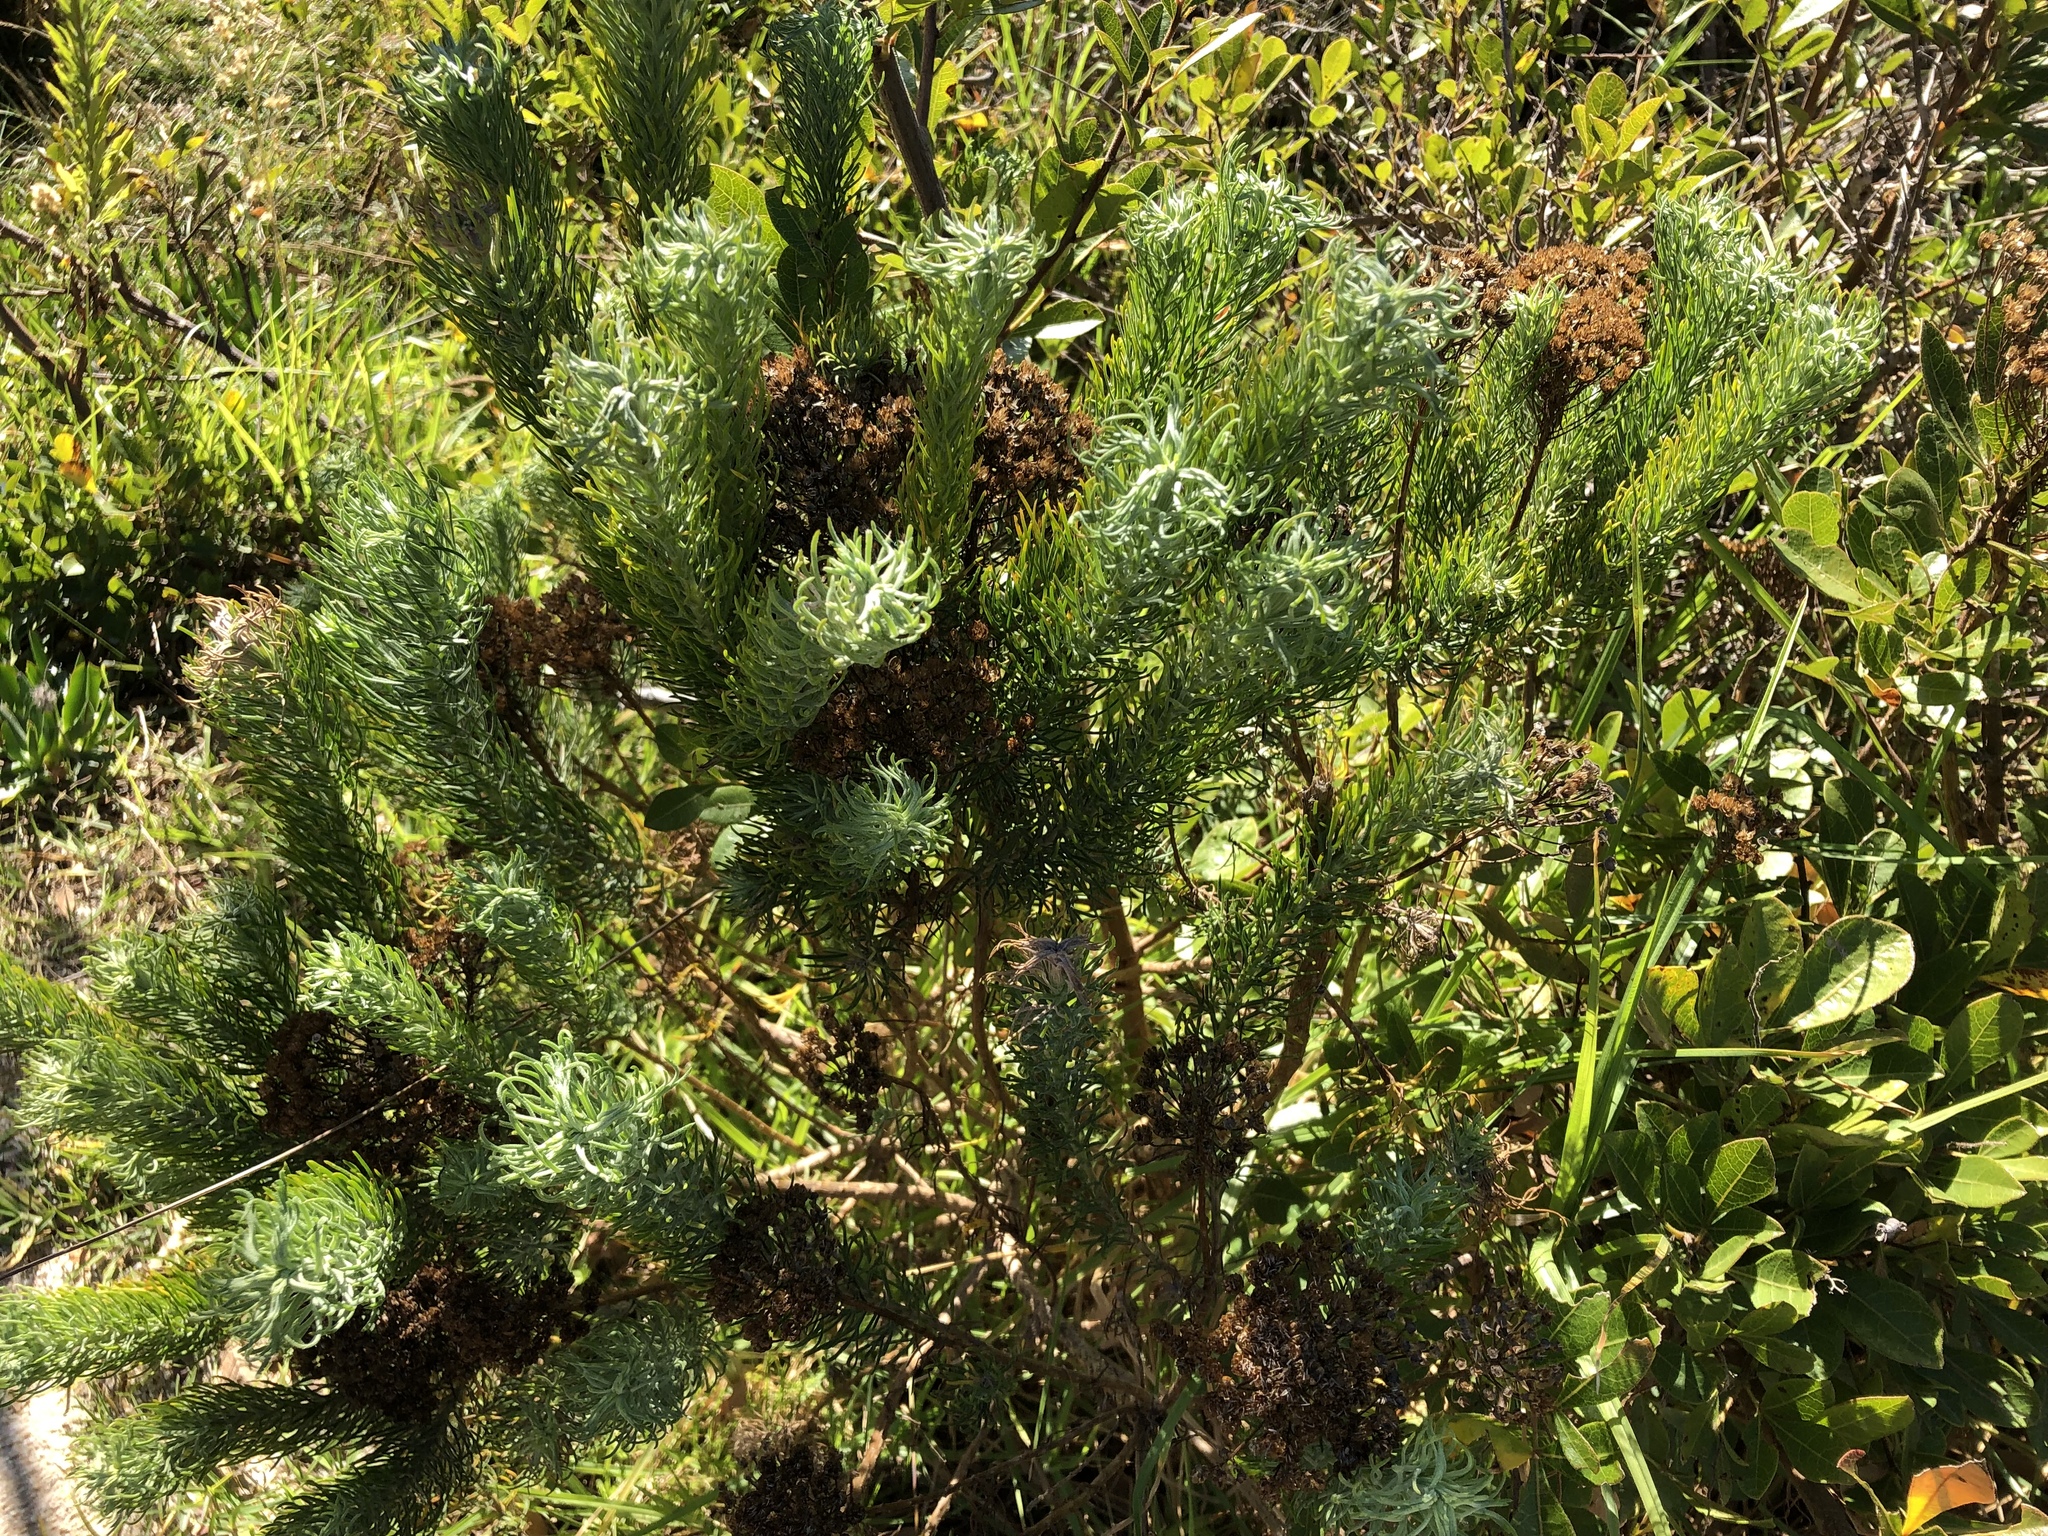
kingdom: Plantae
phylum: Tracheophyta
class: Magnoliopsida
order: Asterales
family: Asteraceae
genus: Athanasia
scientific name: Athanasia crithmifolia
